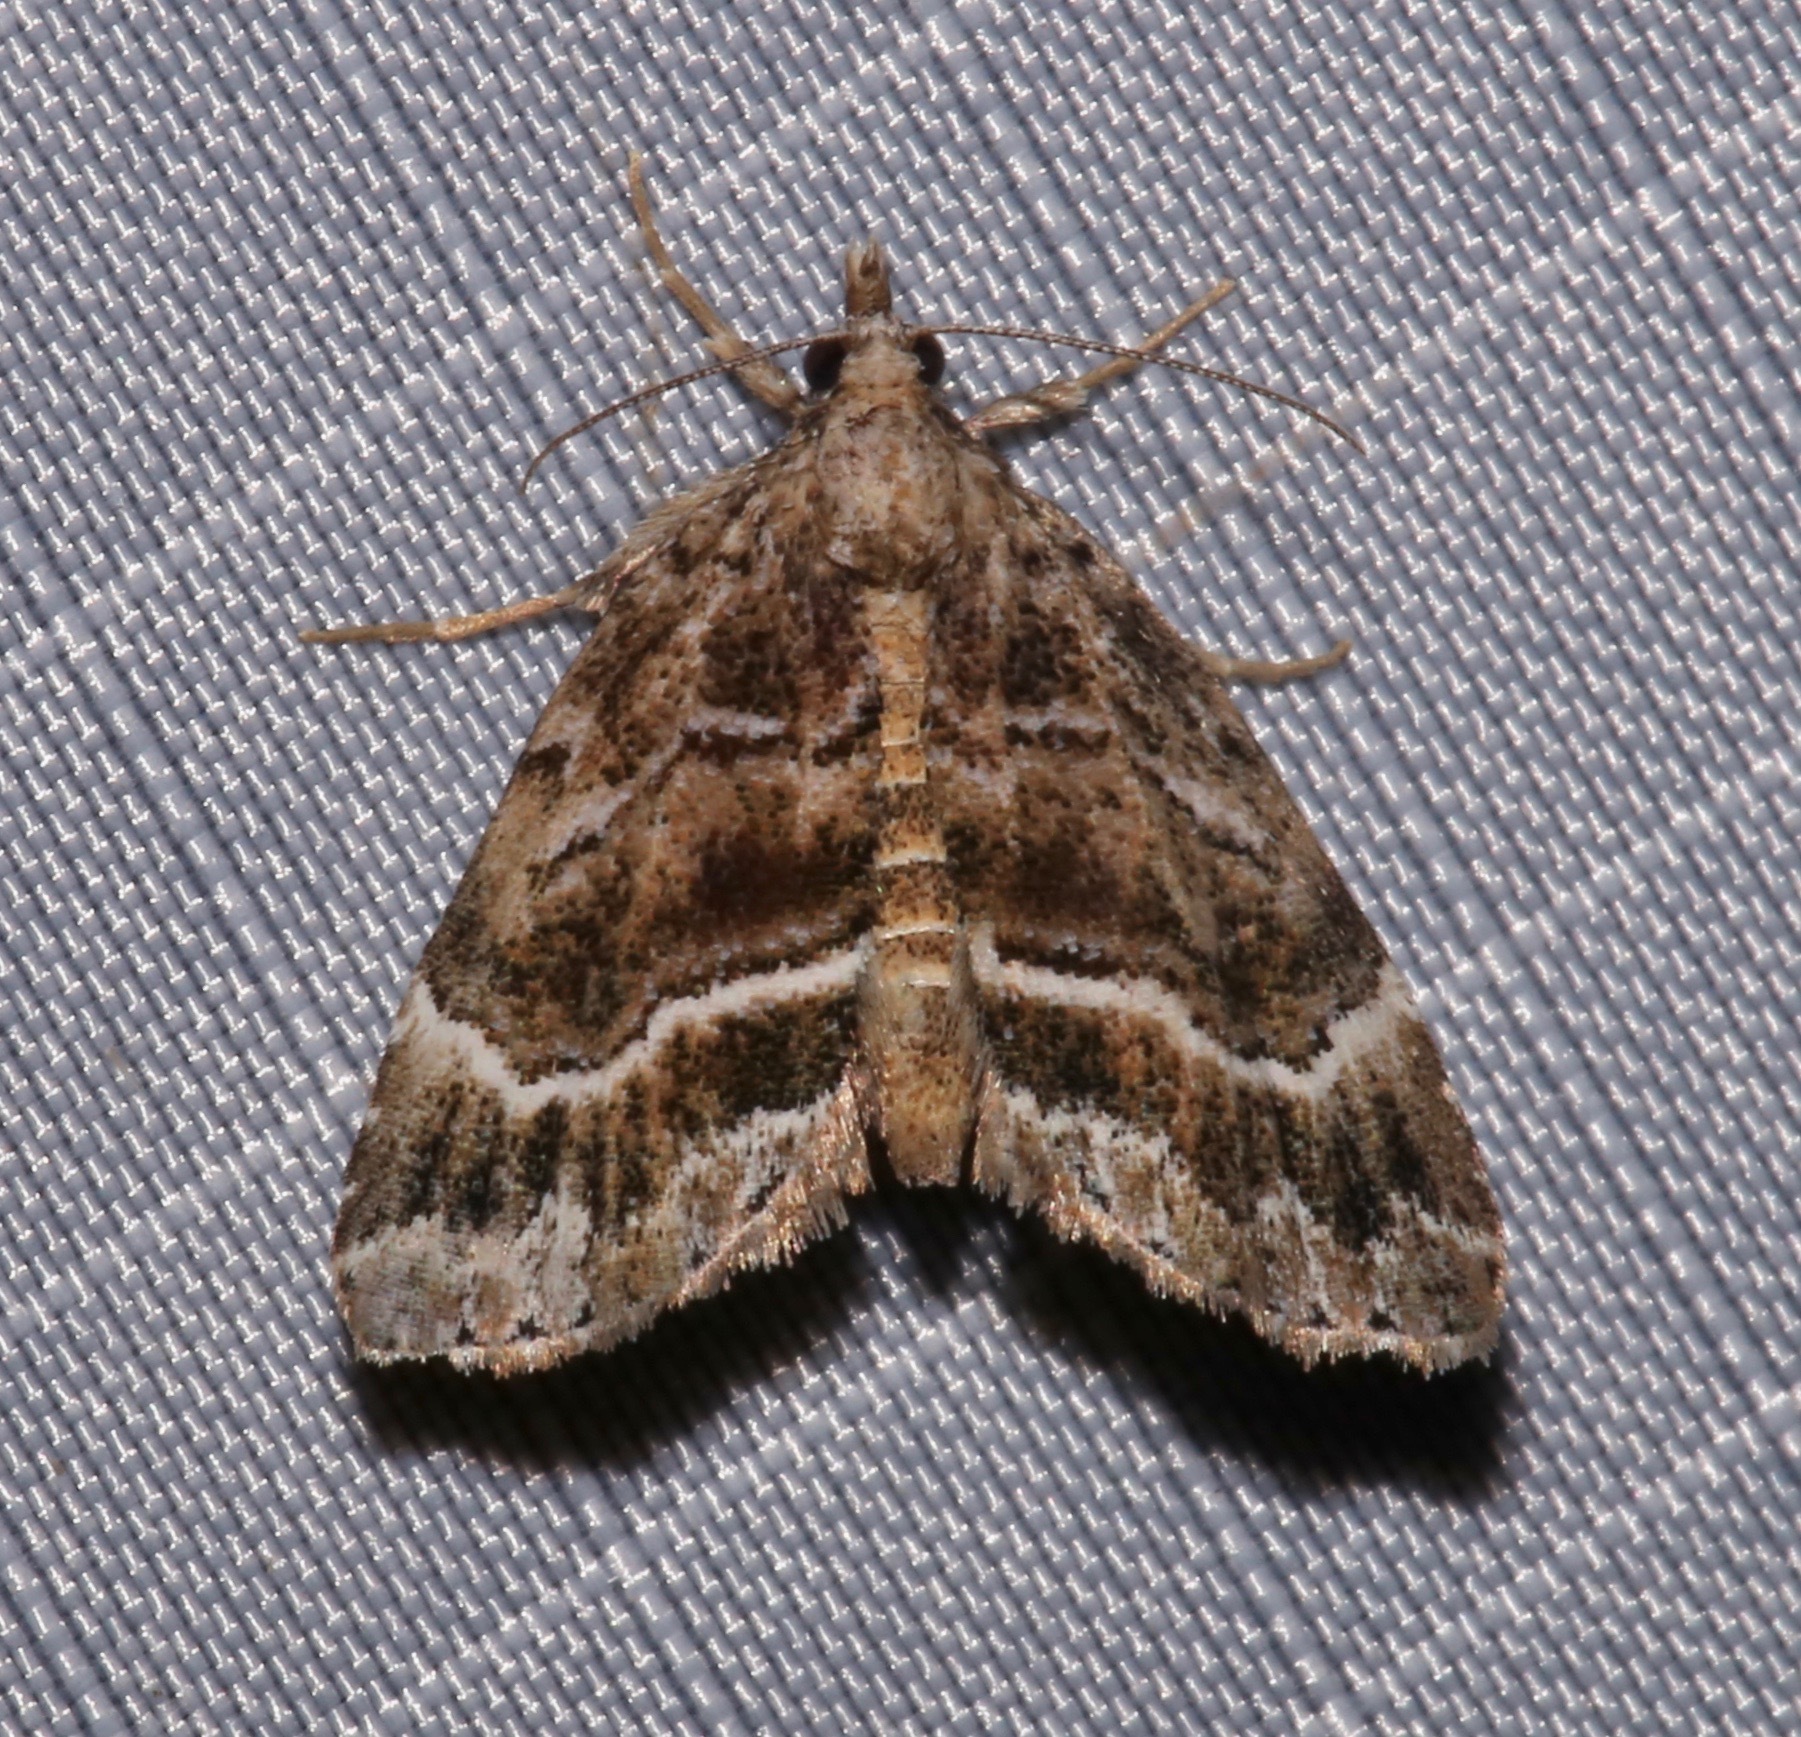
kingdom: Animalia
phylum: Arthropoda
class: Insecta
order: Lepidoptera
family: Erebidae
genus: Cutina
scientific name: Cutina arcuata
